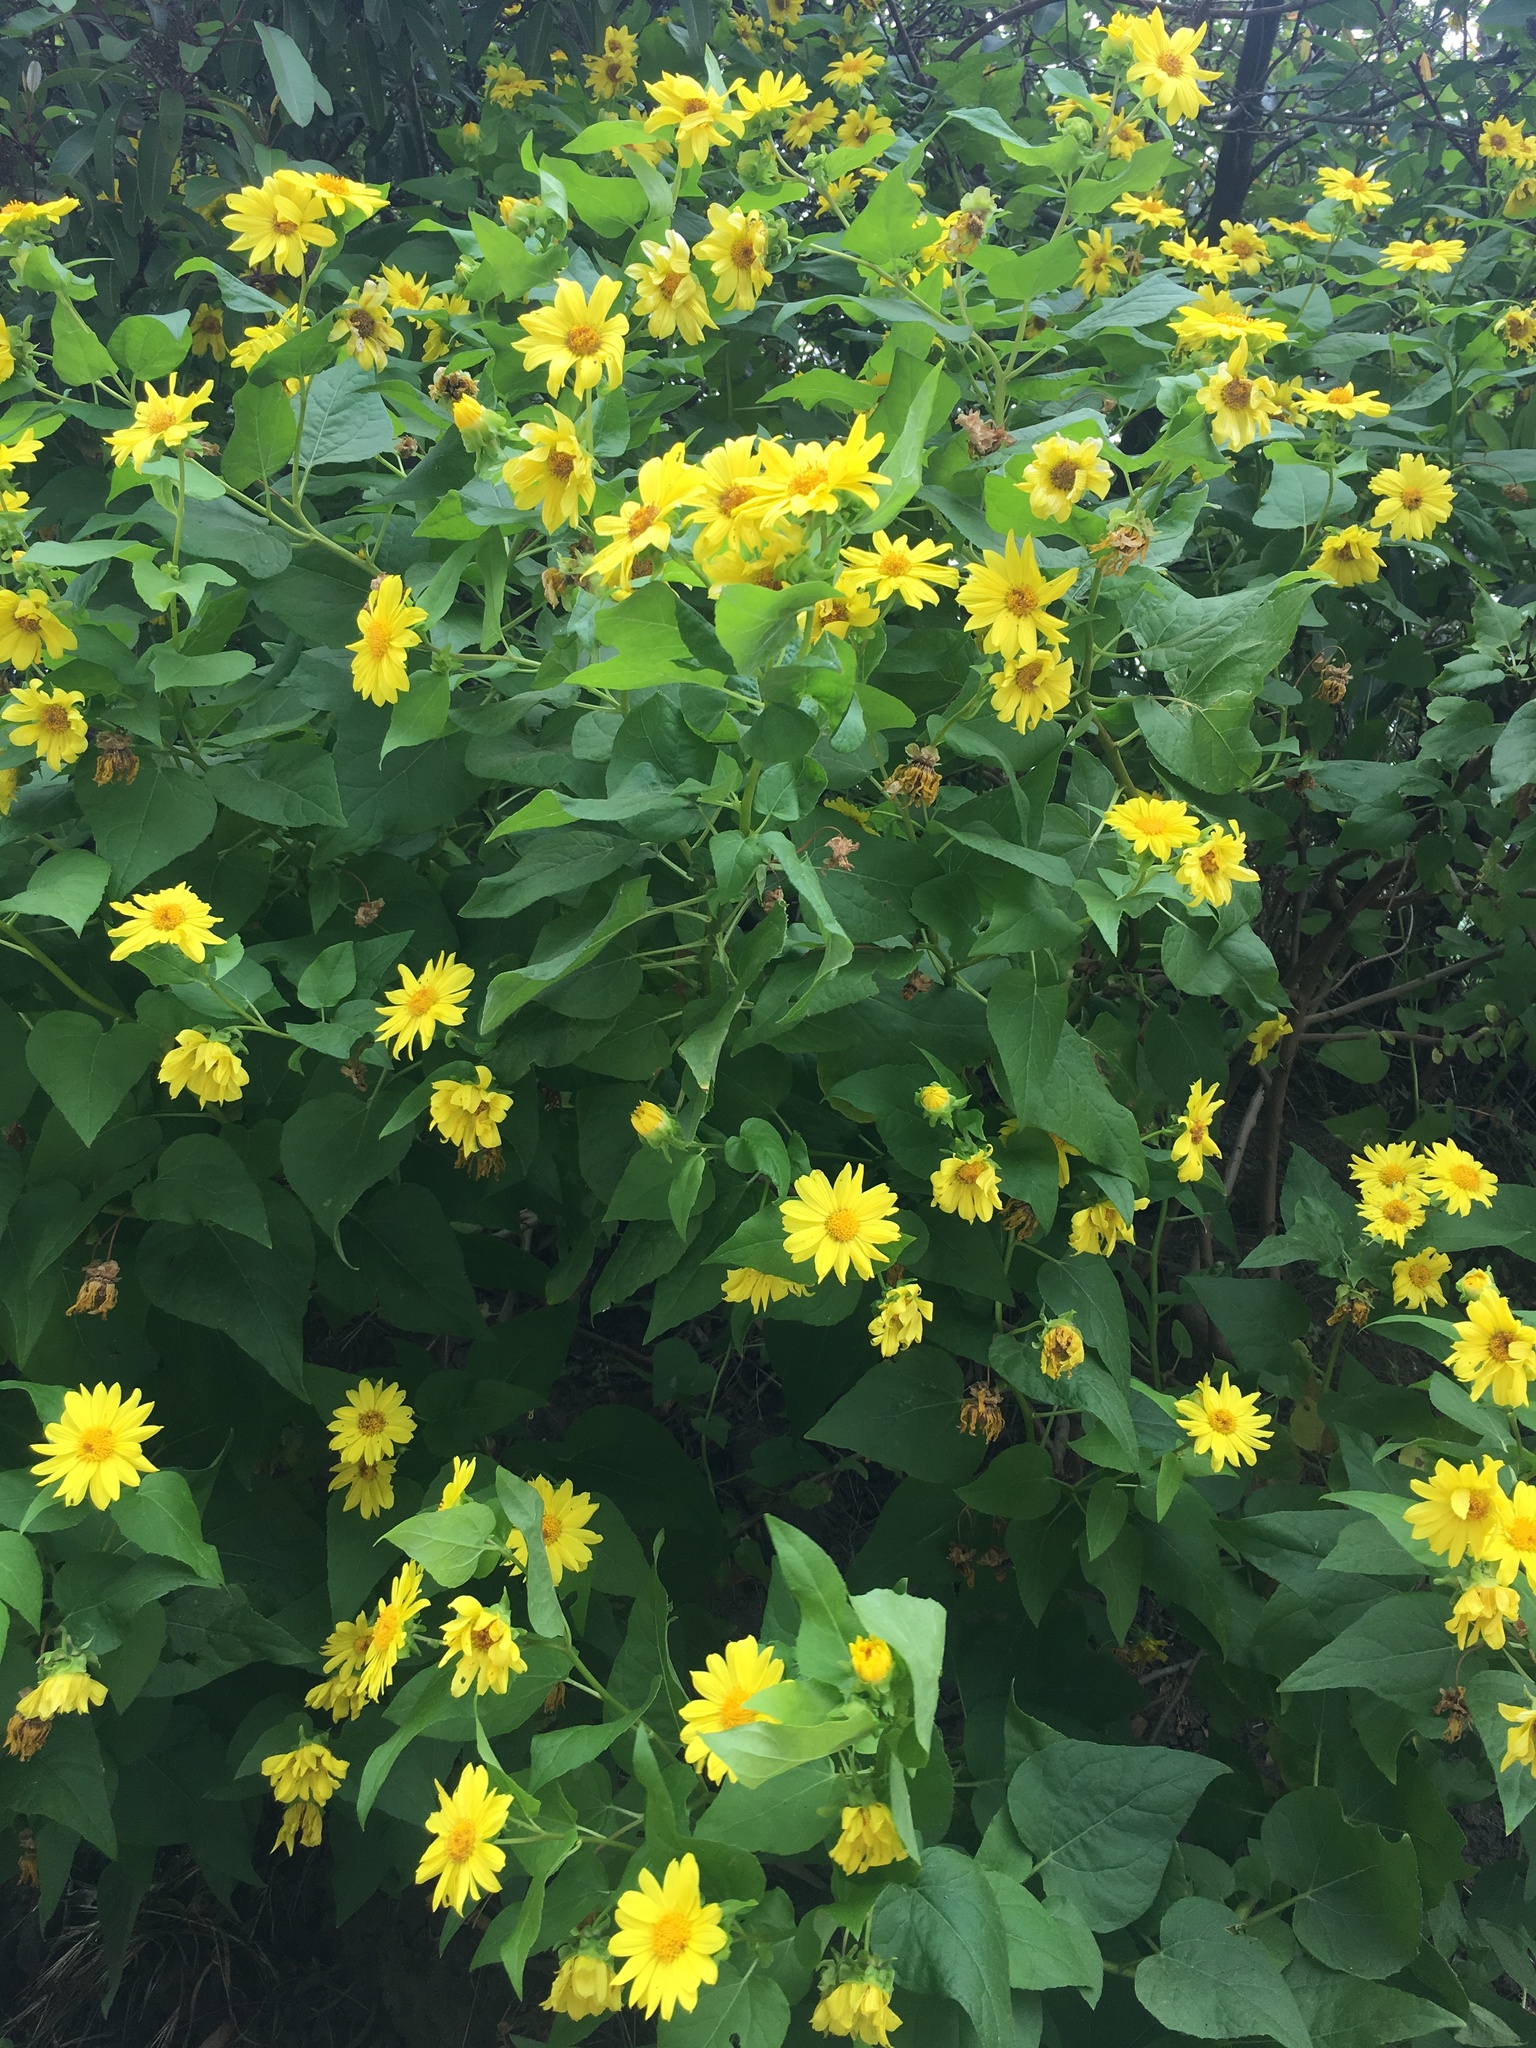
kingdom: Plantae
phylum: Tracheophyta
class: Magnoliopsida
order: Asterales
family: Asteraceae
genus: Venegasia
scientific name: Venegasia carpesioides
